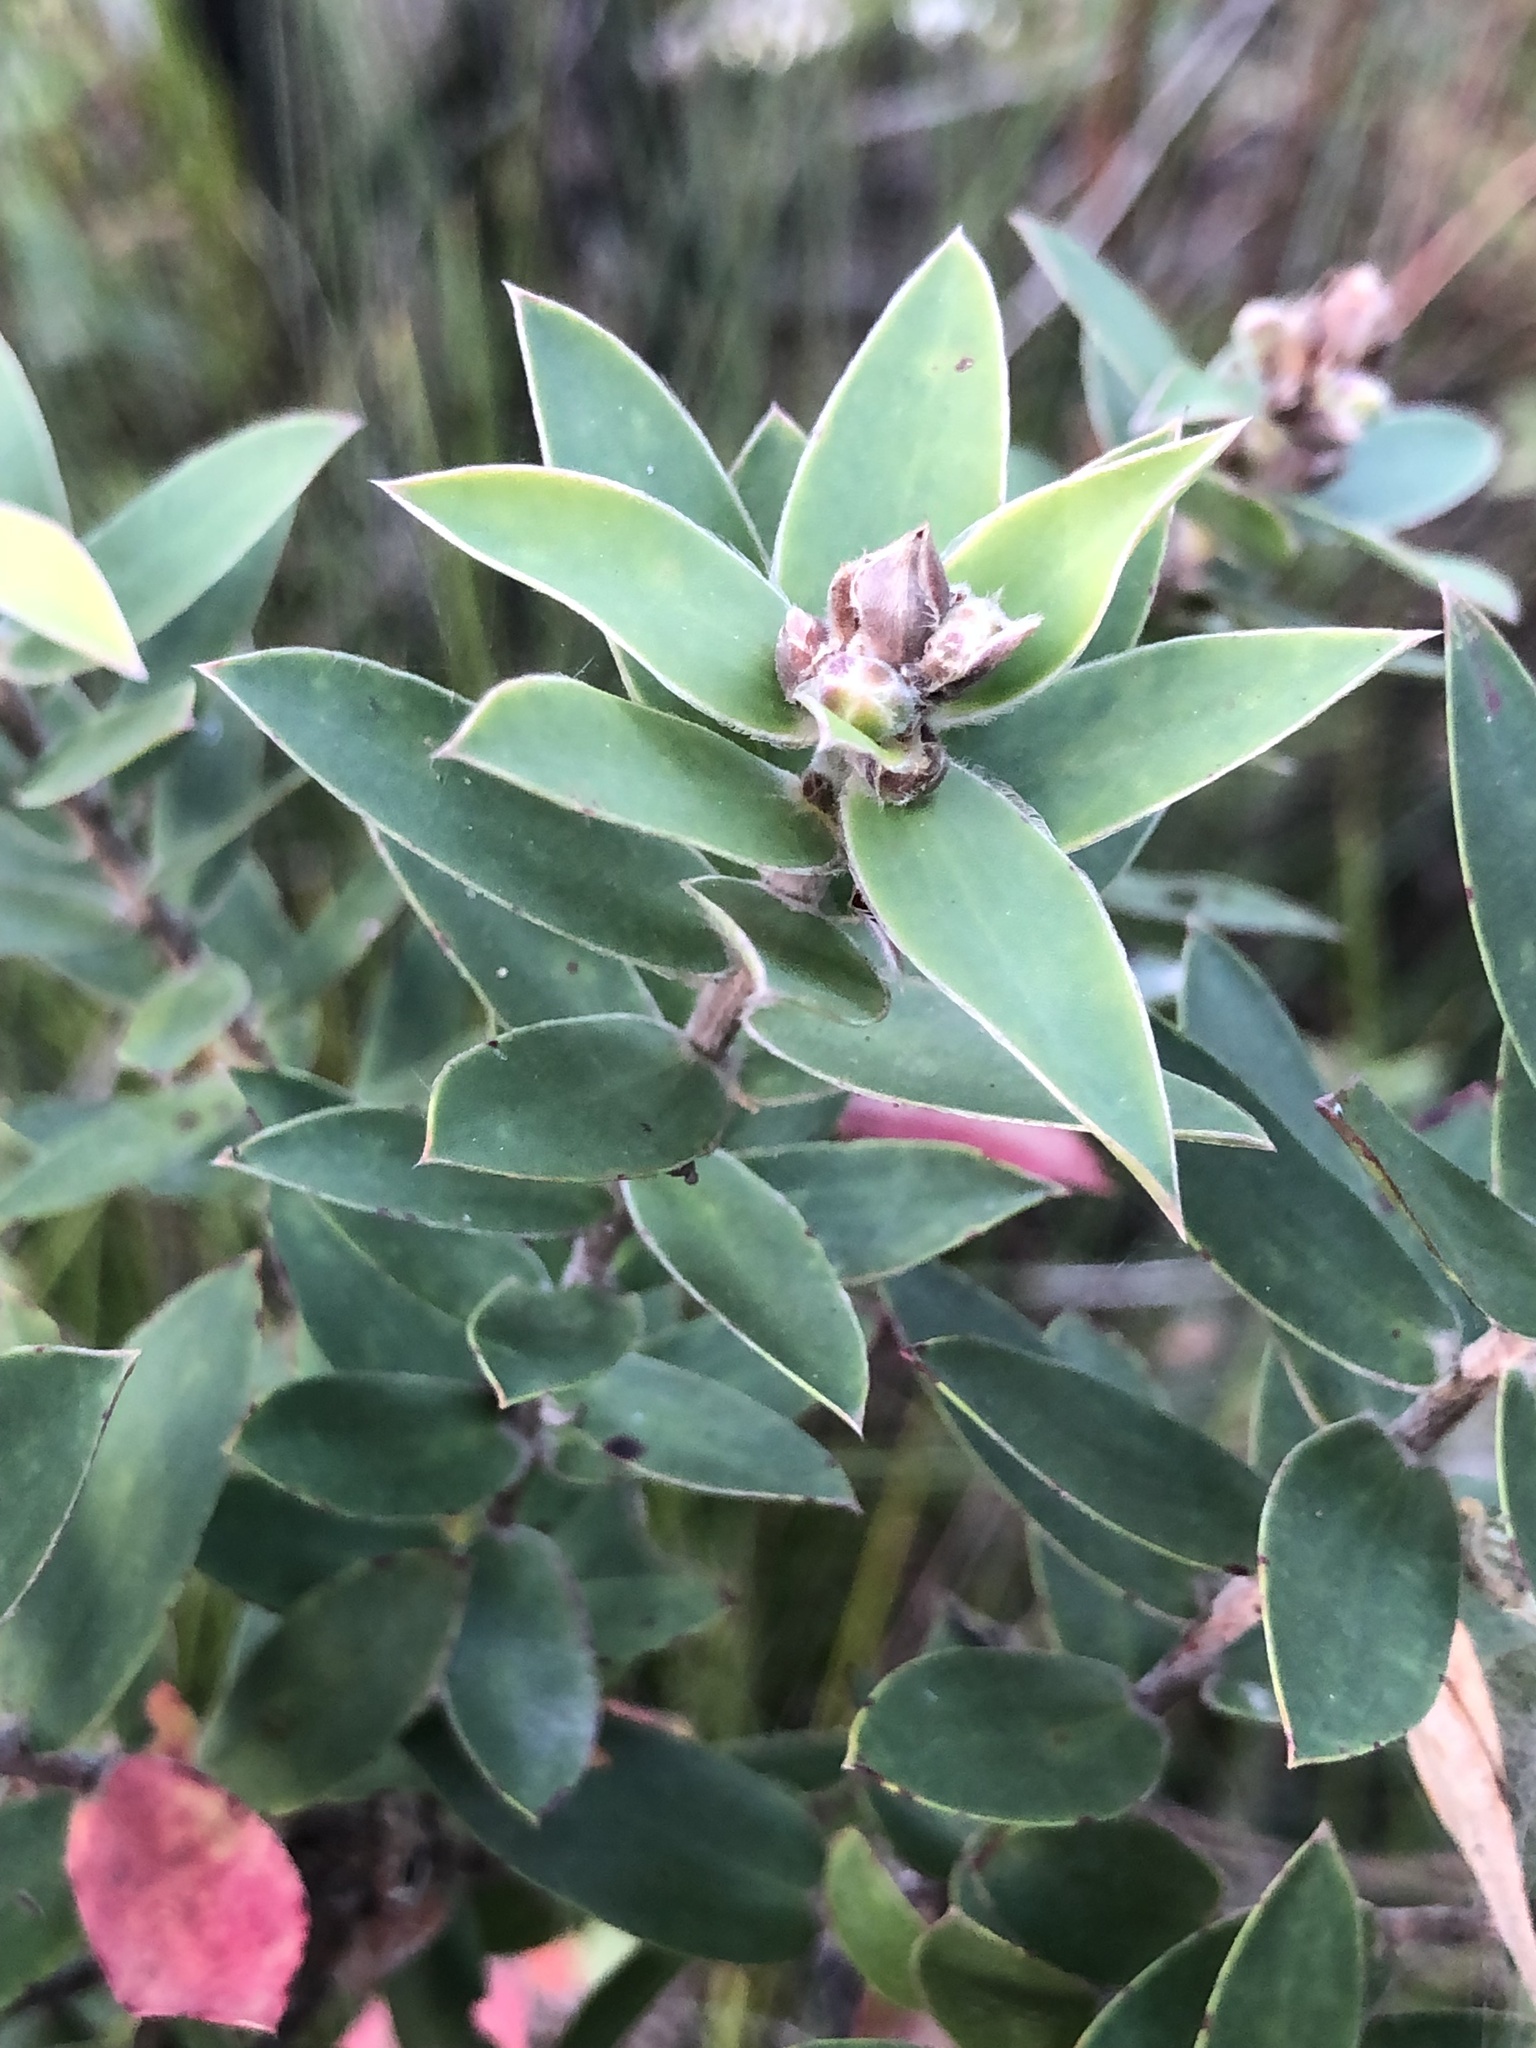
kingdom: Plantae
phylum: Tracheophyta
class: Magnoliopsida
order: Myrtales
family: Myrtaceae
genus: Leptospermum
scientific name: Leptospermum speciosum
